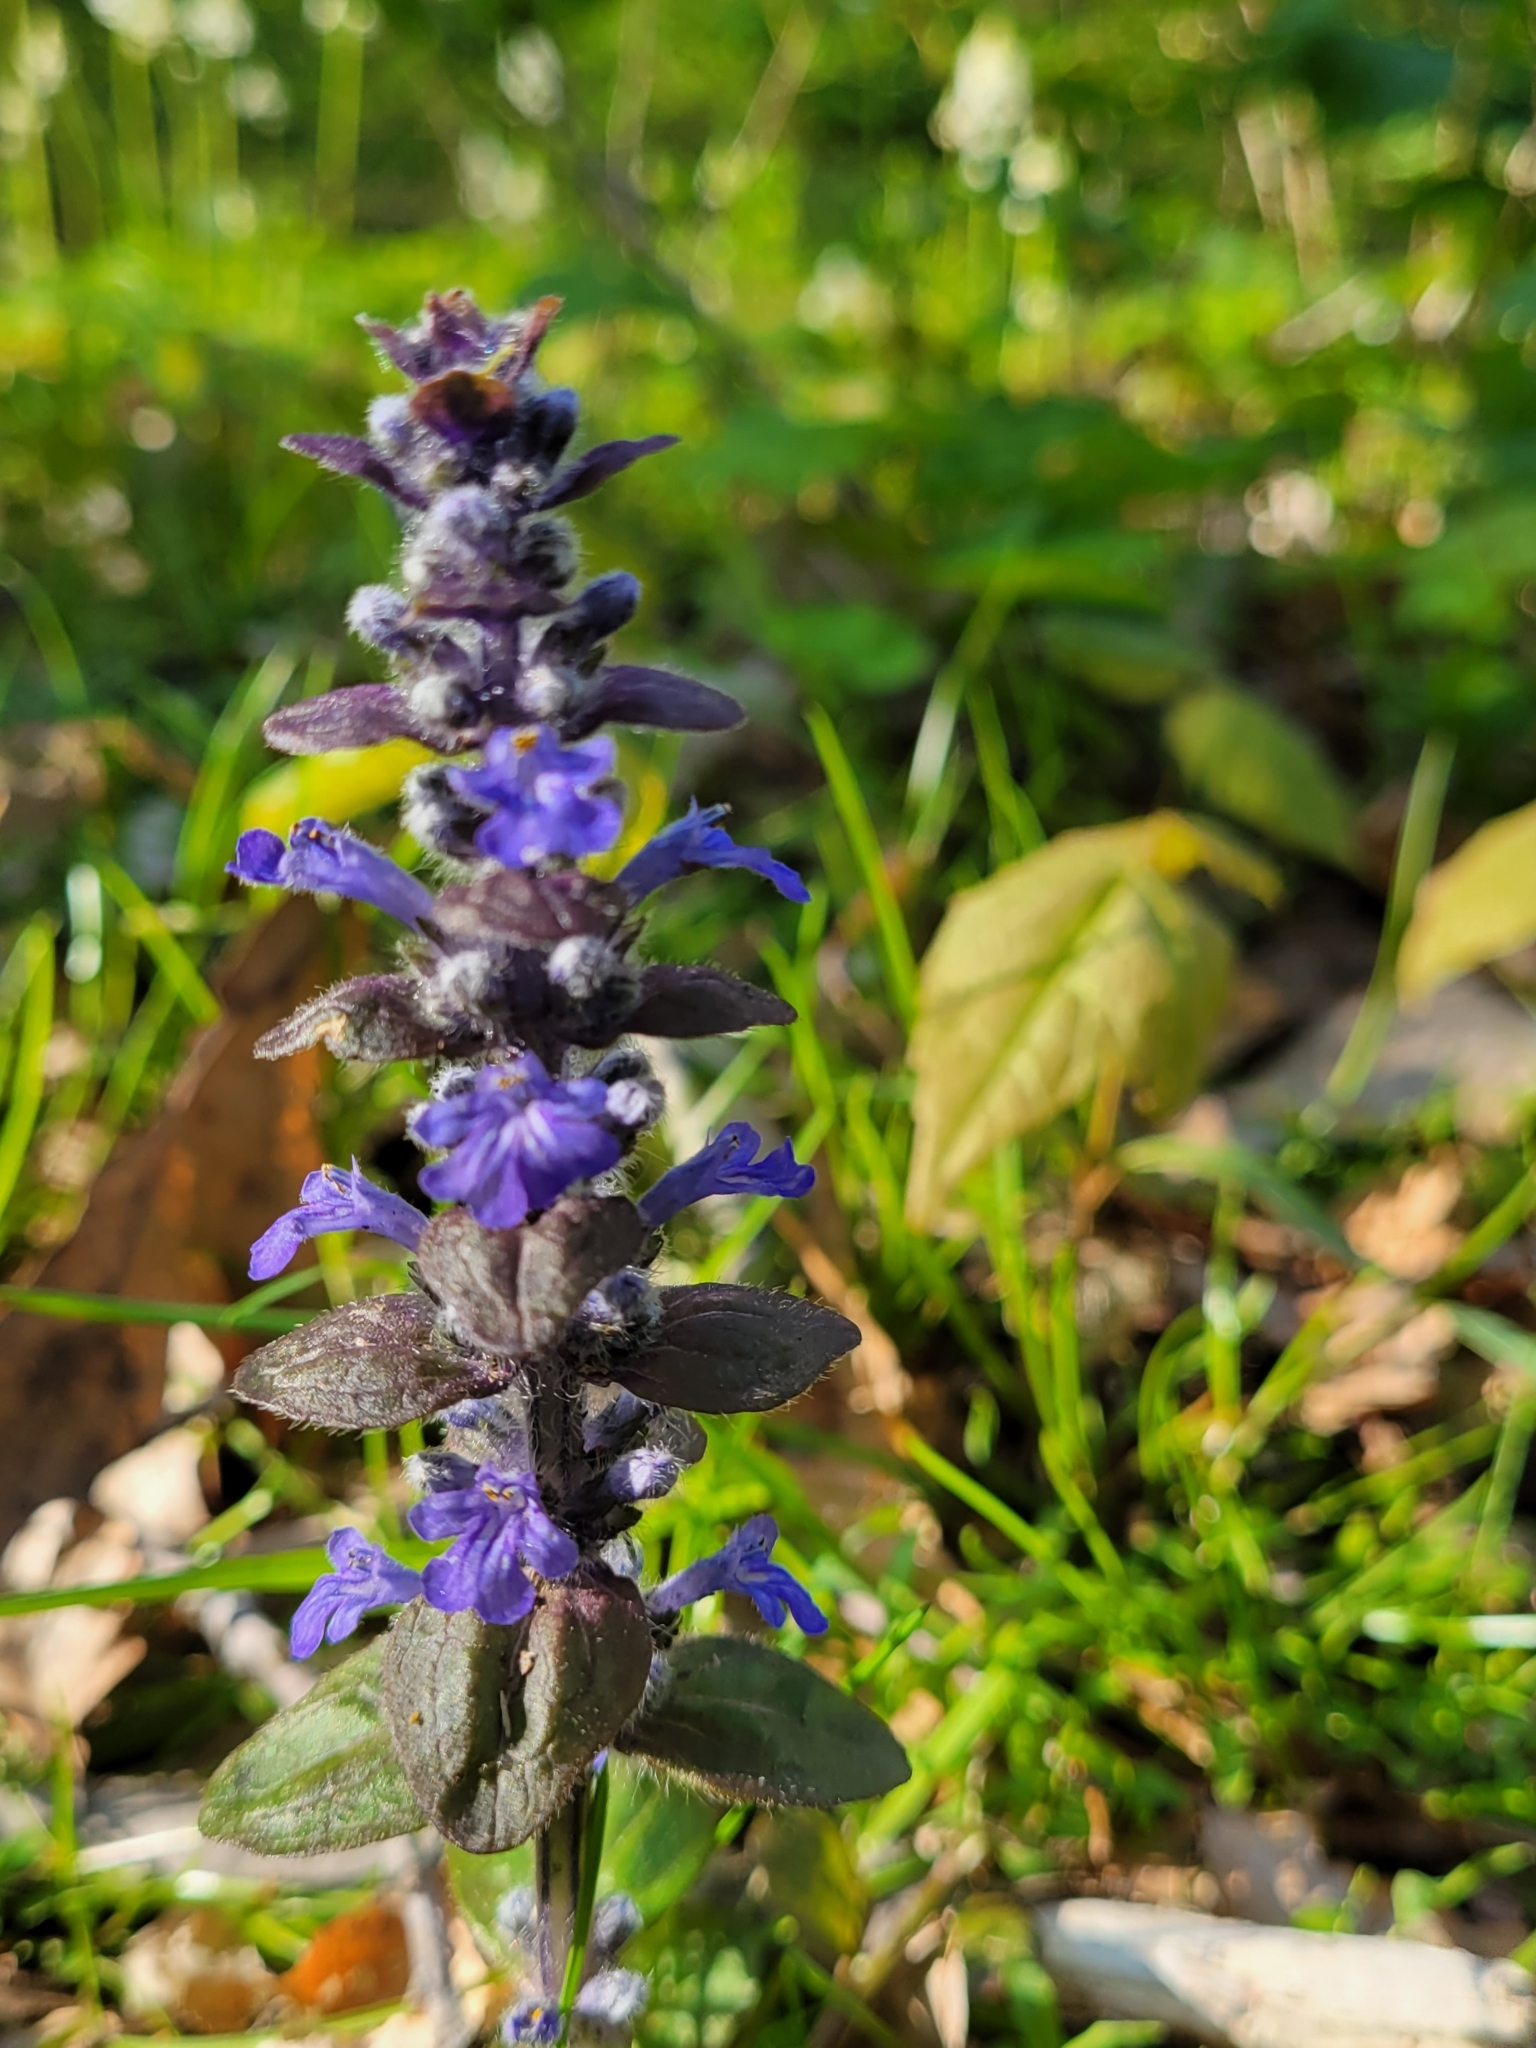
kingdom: Plantae
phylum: Tracheophyta
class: Magnoliopsida
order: Lamiales
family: Lamiaceae
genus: Ajuga
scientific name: Ajuga reptans
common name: Bugle
